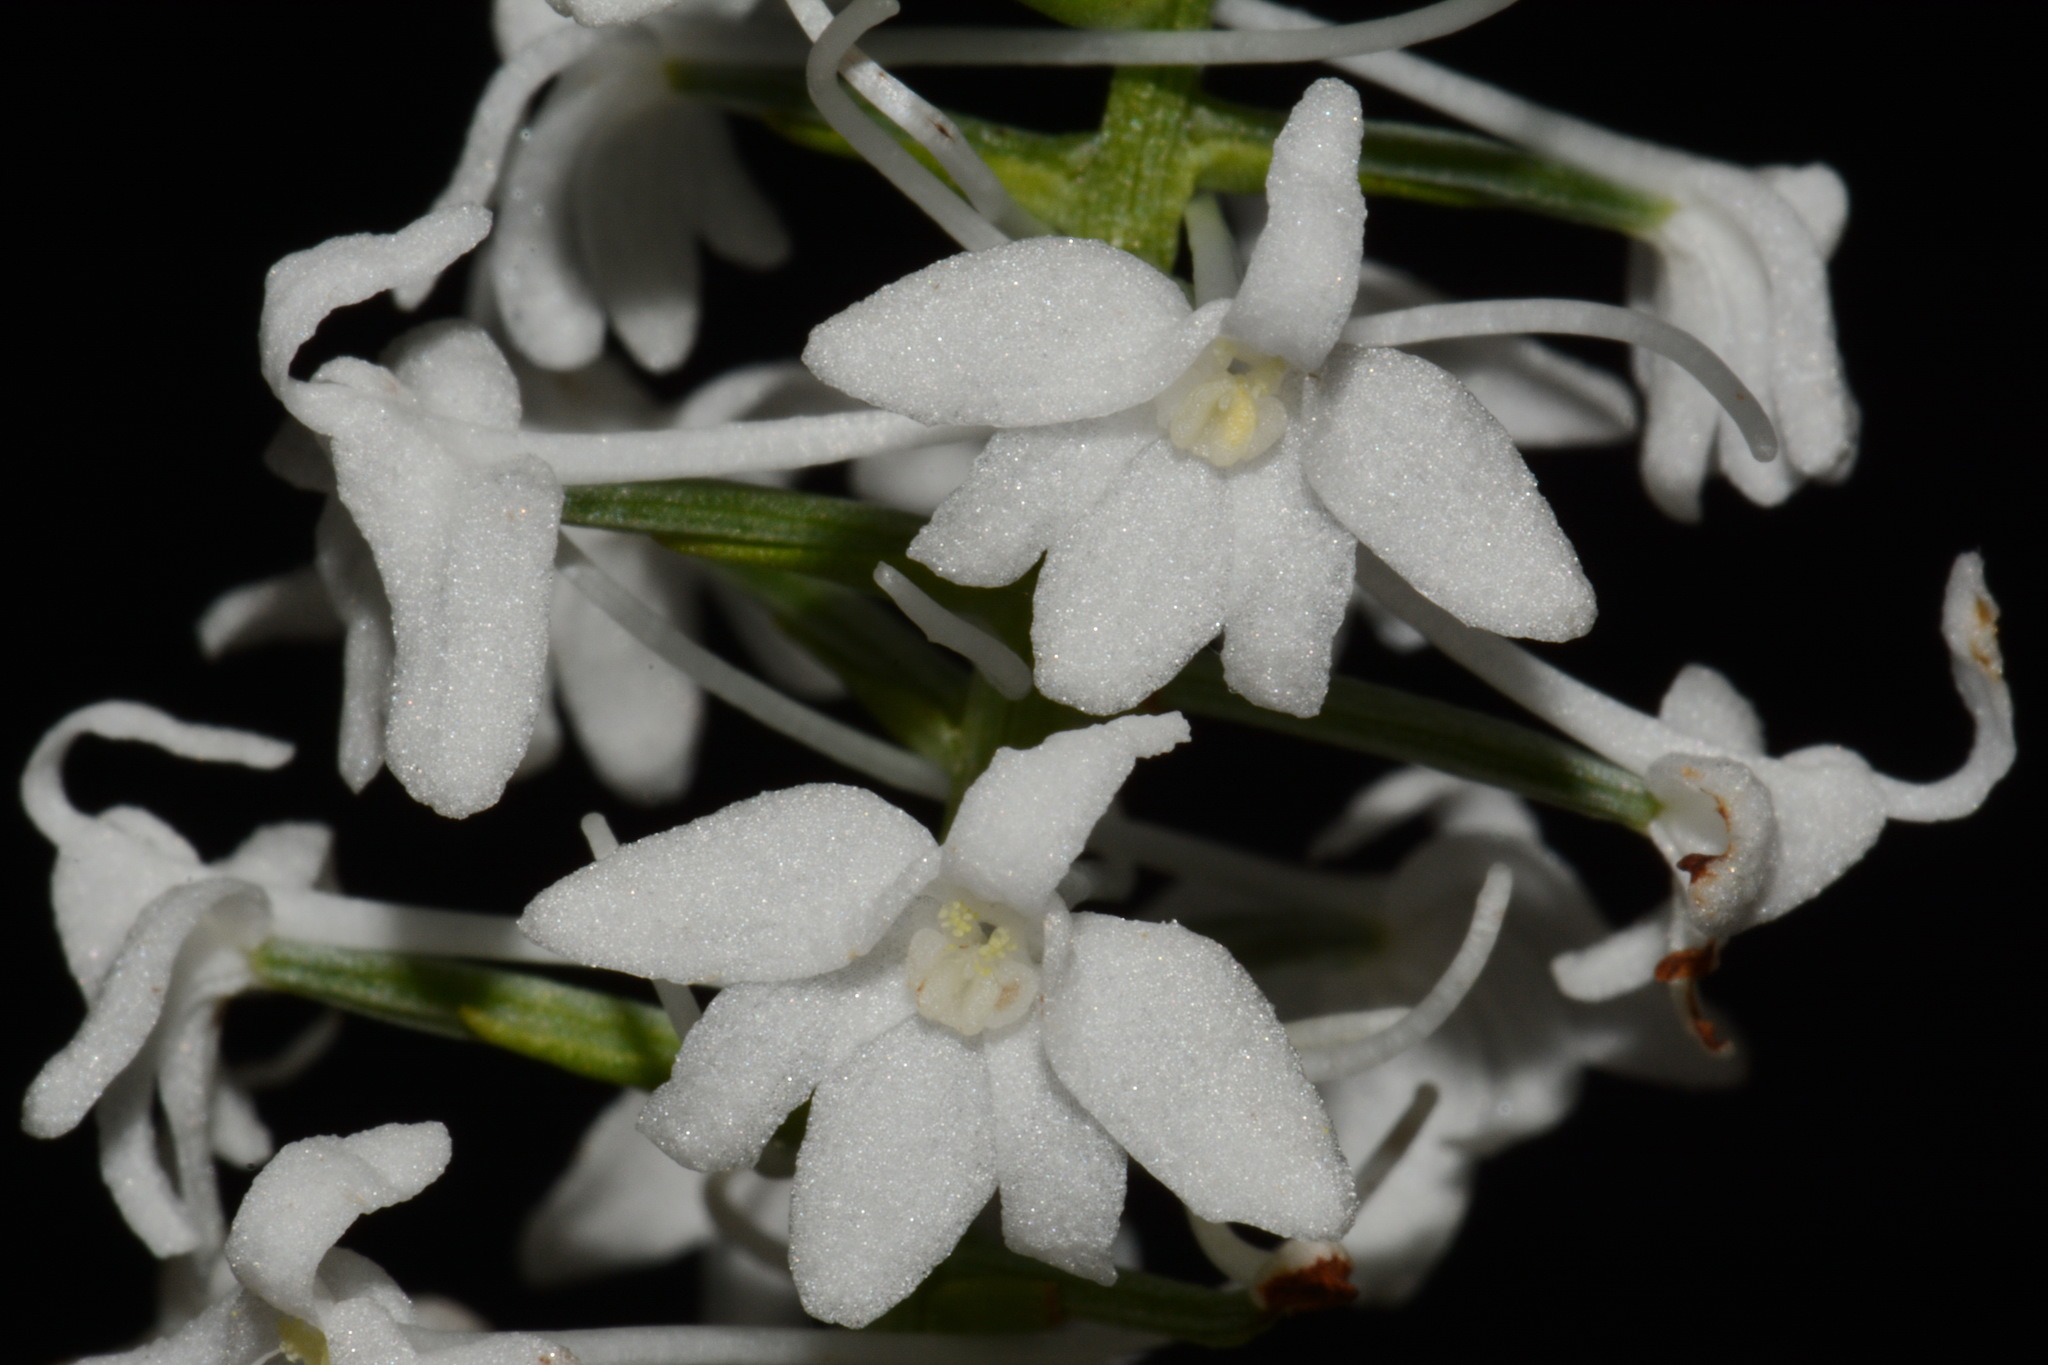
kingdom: Plantae
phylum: Tracheophyta
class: Liliopsida
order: Asparagales
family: Orchidaceae
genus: Platanthera
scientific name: Platanthera nivea
